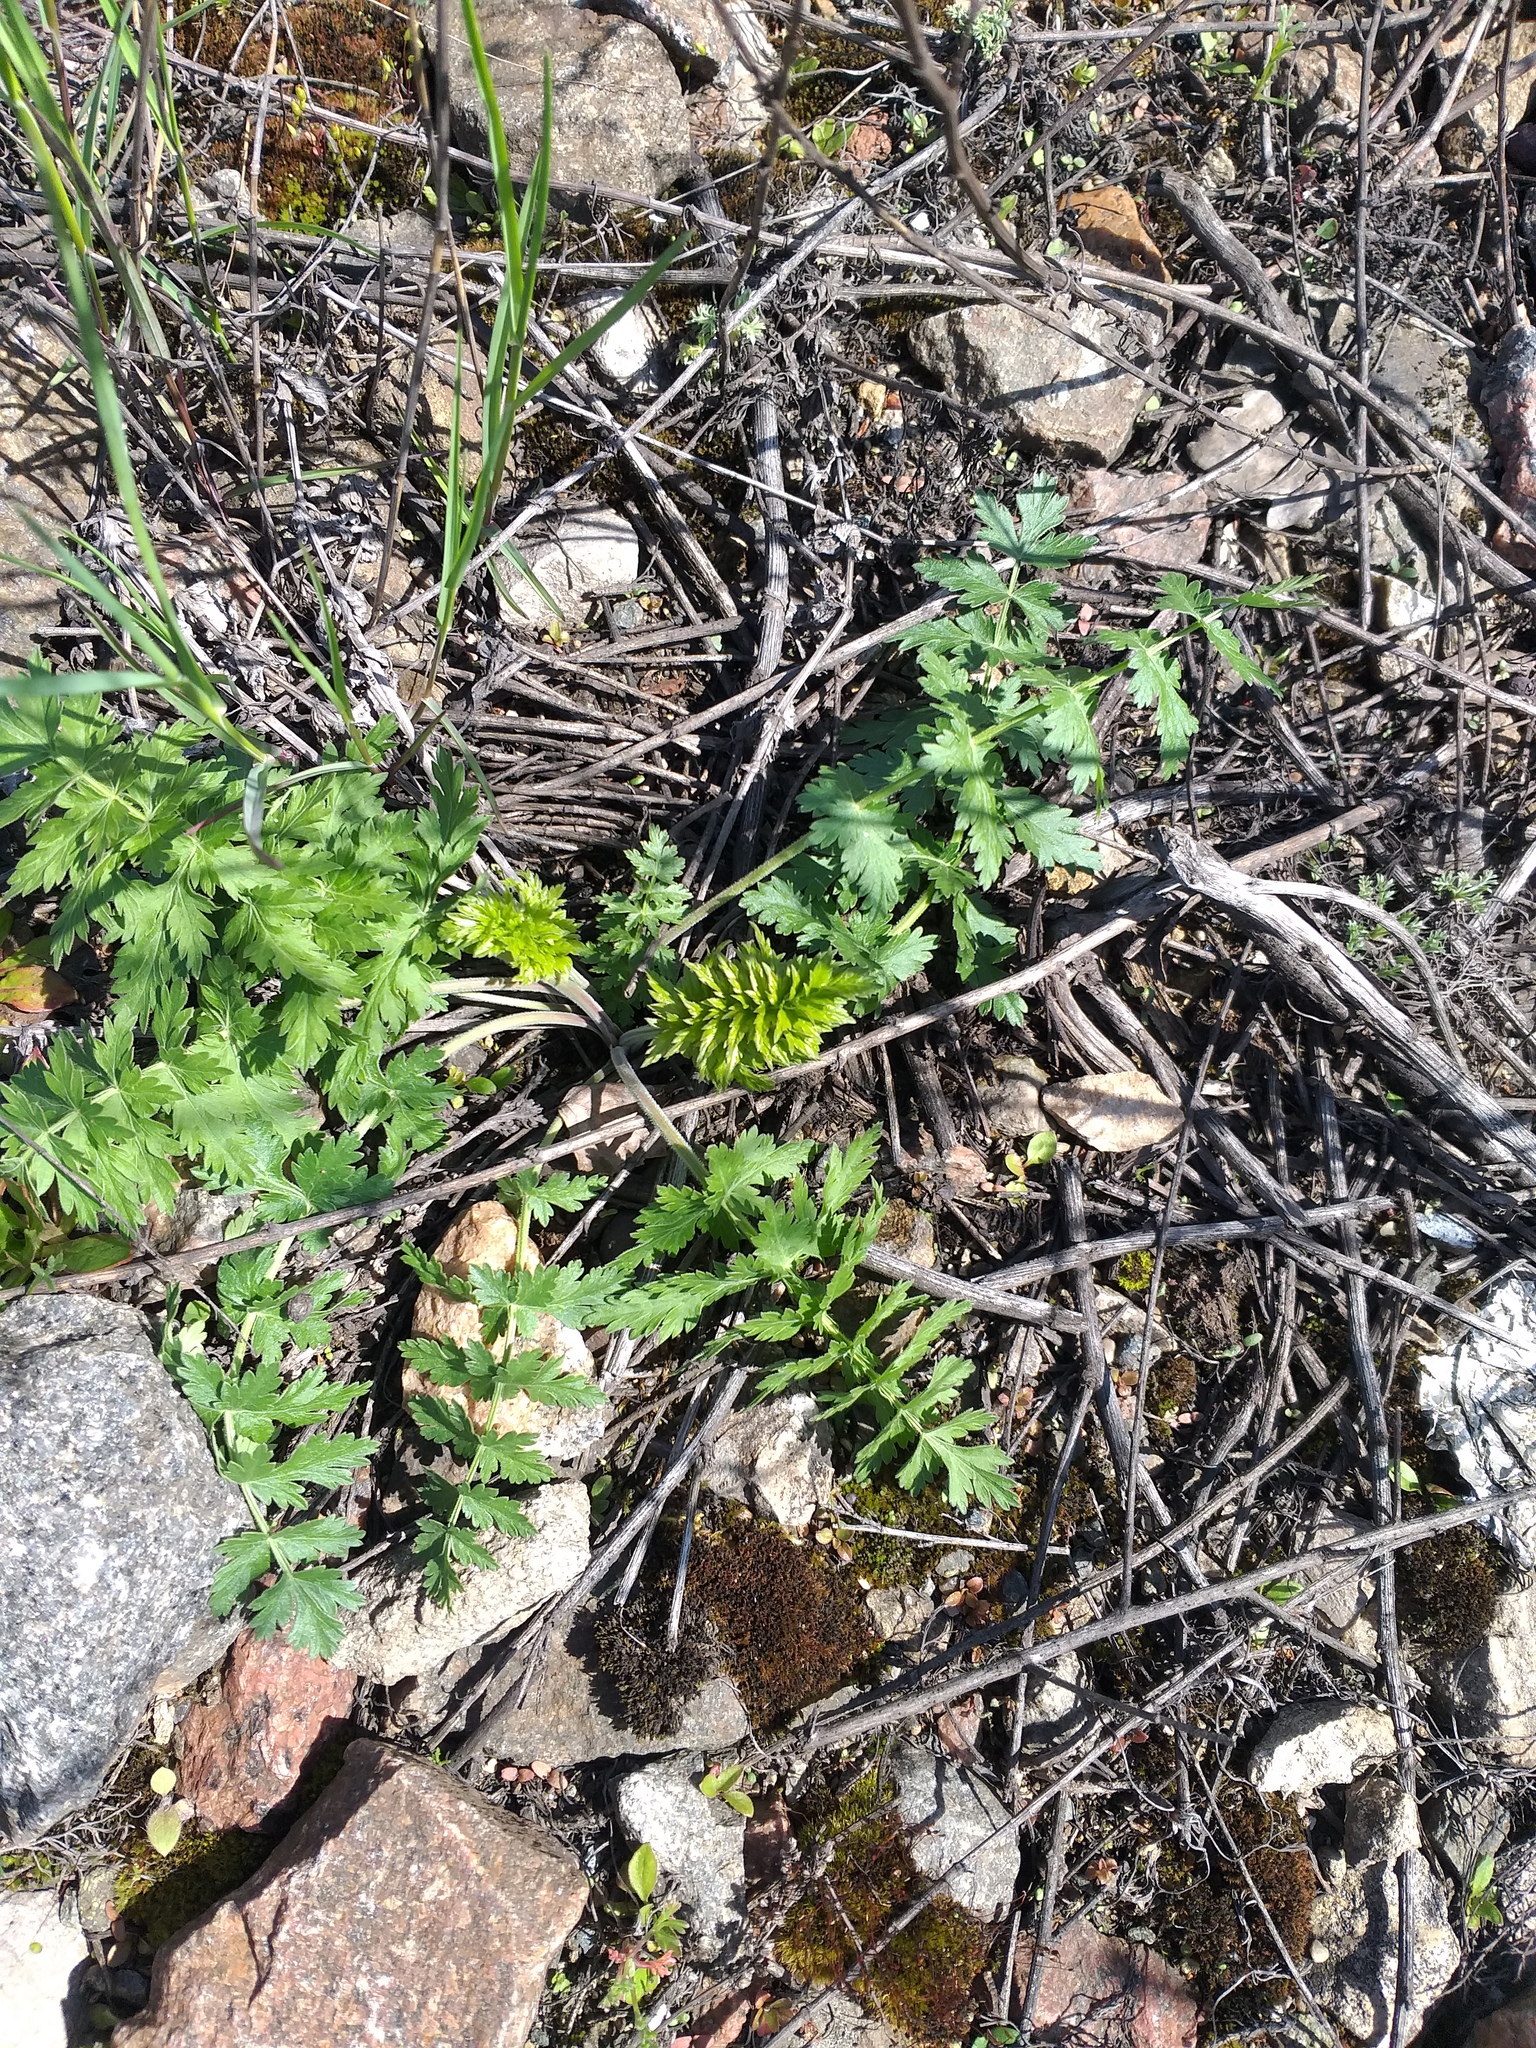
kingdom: Plantae
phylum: Tracheophyta
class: Magnoliopsida
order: Apiales
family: Apiaceae
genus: Seseli
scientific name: Seseli libanotis
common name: Mooncarrot
